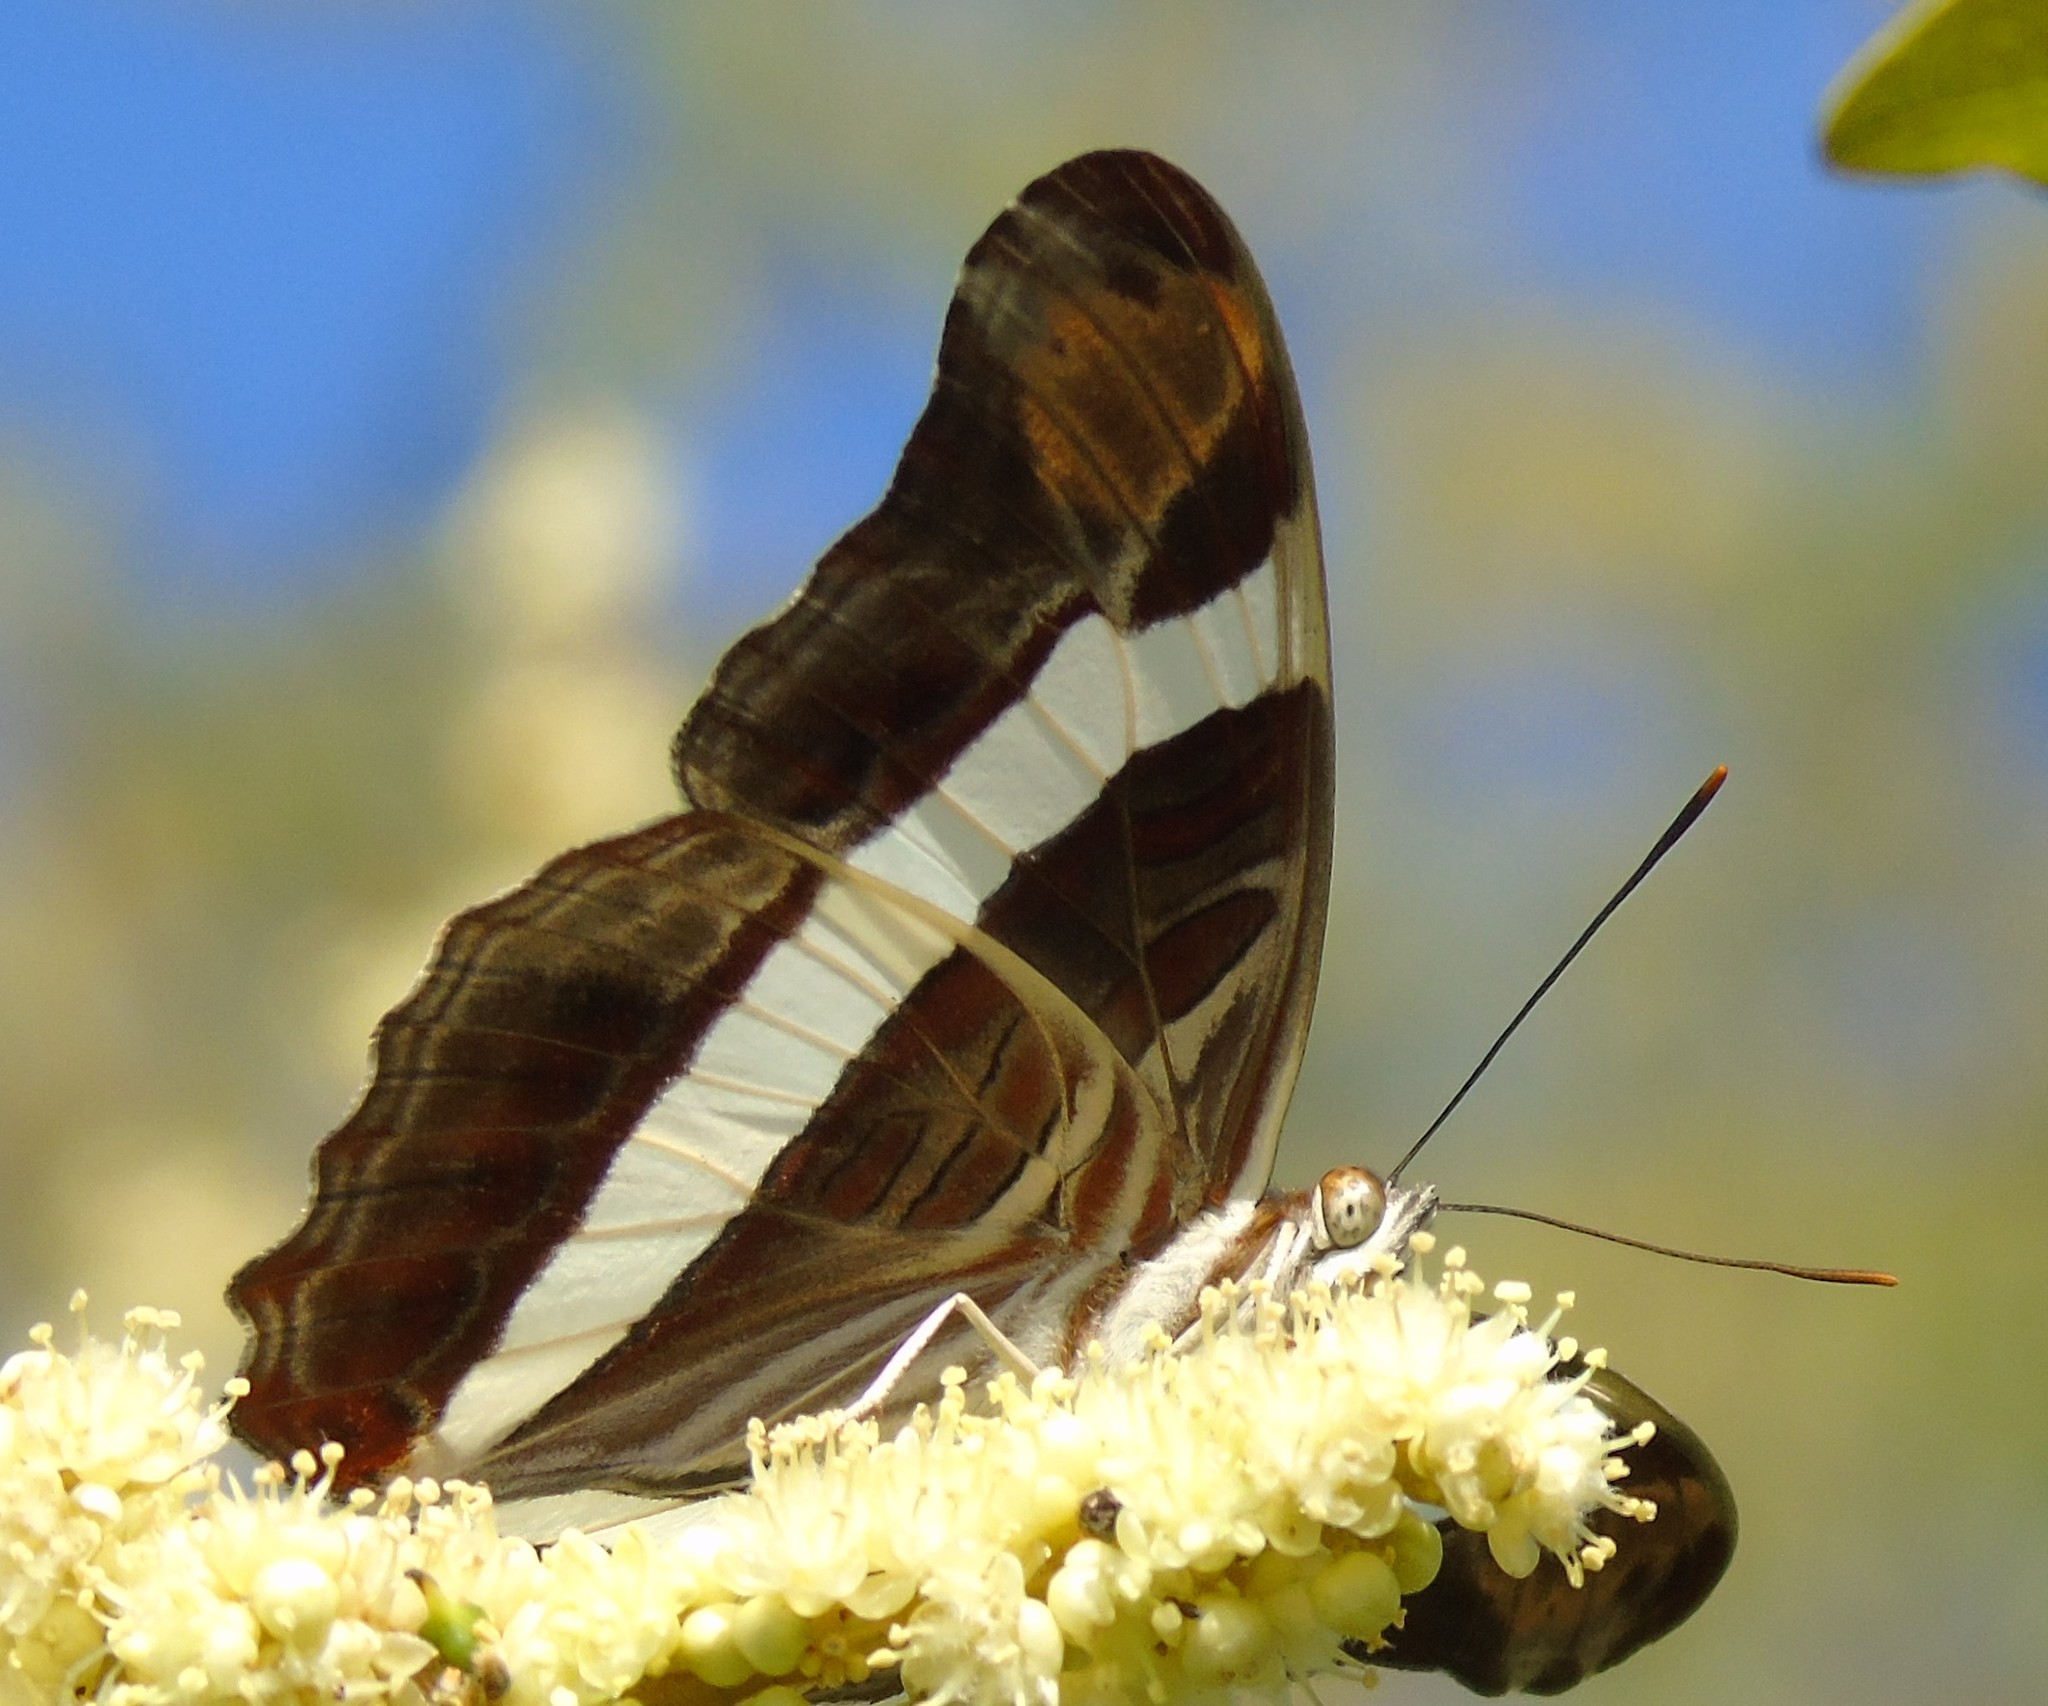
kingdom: Animalia
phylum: Arthropoda
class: Insecta
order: Lepidoptera
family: Nymphalidae
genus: Limenitis
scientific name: Limenitis fessonia
